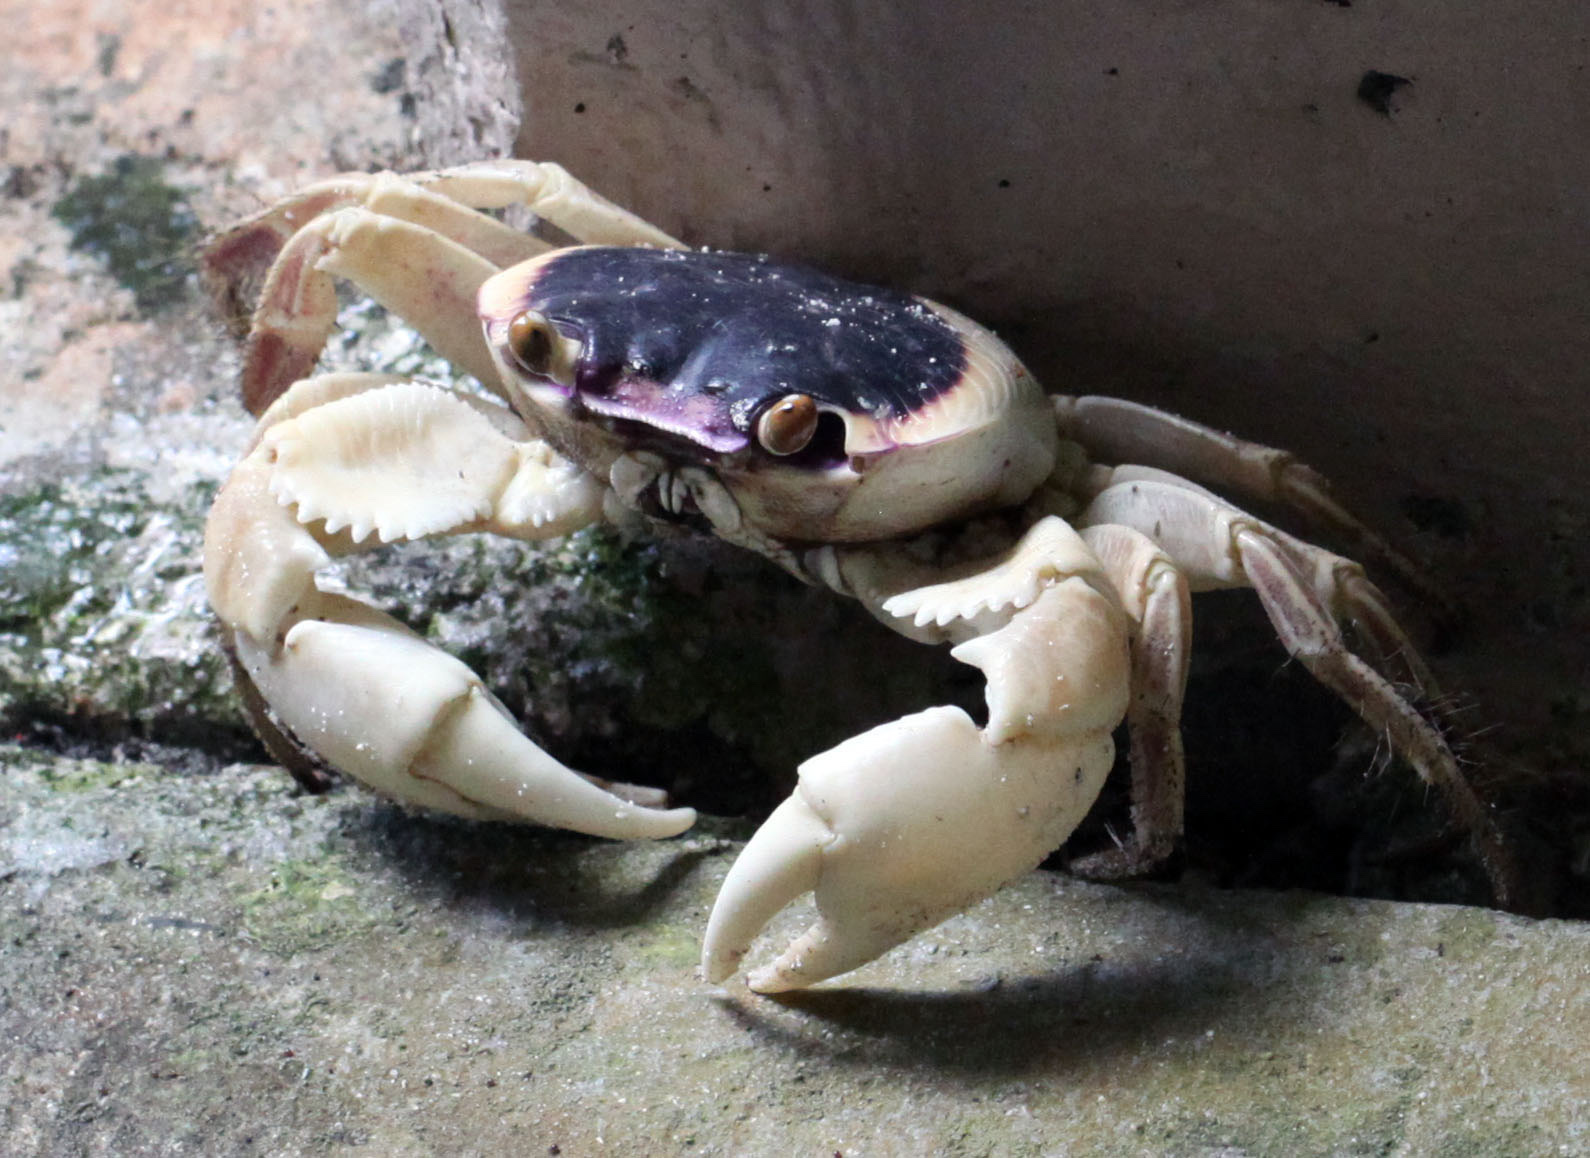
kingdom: Animalia
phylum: Arthropoda
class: Malacostraca
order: Decapoda
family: Grapsidae
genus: Geograpsus
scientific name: Geograpsus grayi
